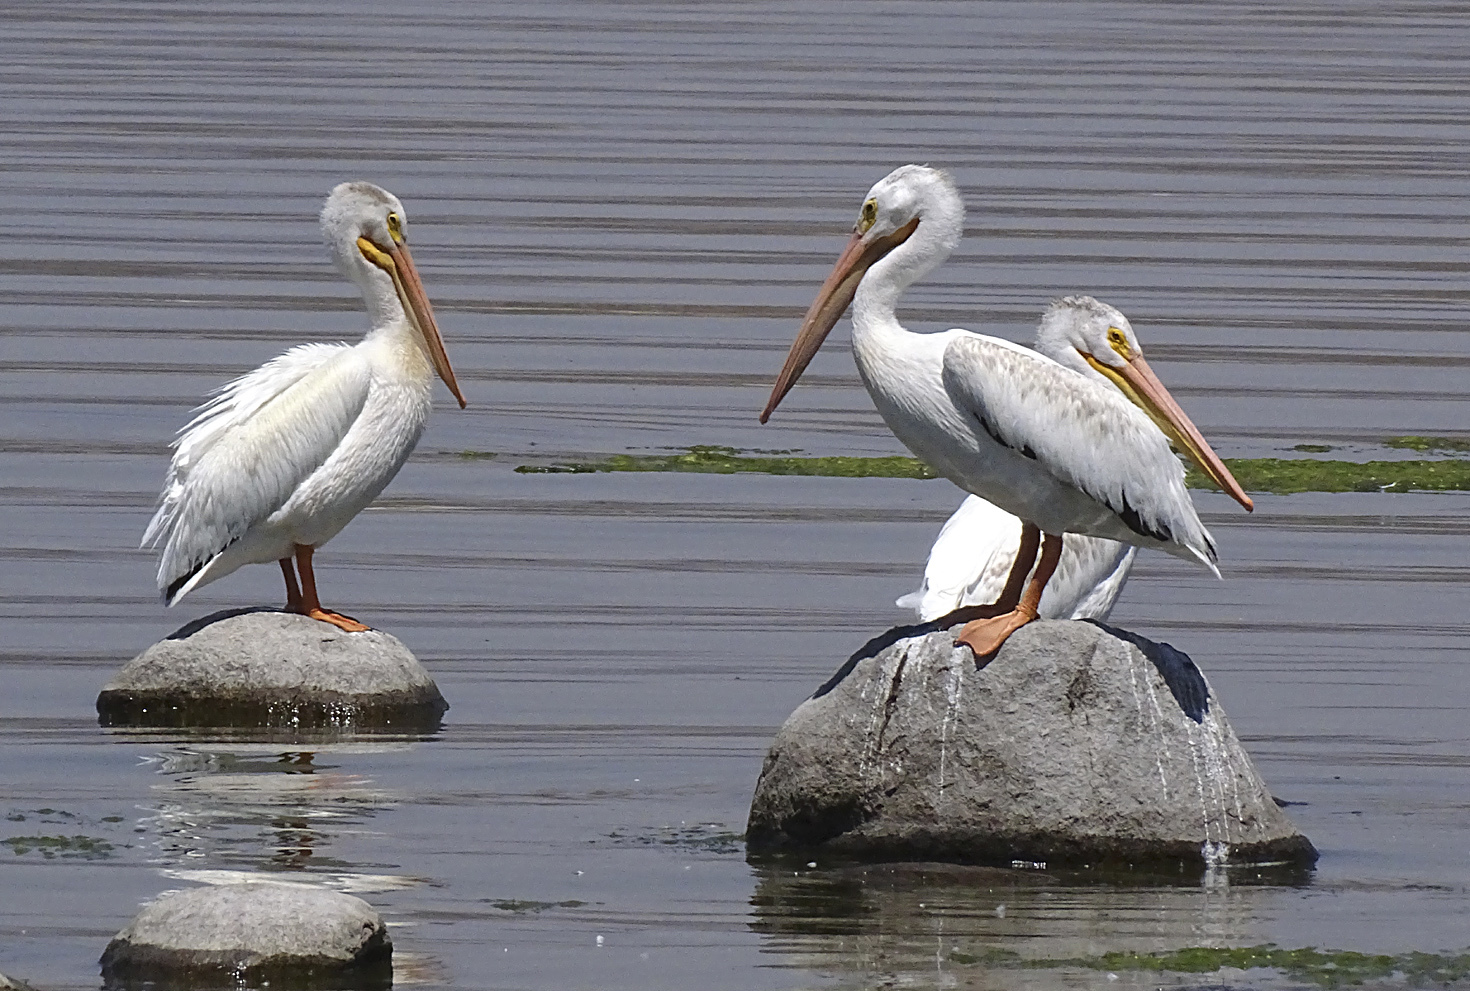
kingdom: Animalia
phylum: Chordata
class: Aves
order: Pelecaniformes
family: Pelecanidae
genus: Pelecanus
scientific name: Pelecanus erythrorhynchos
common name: American white pelican
